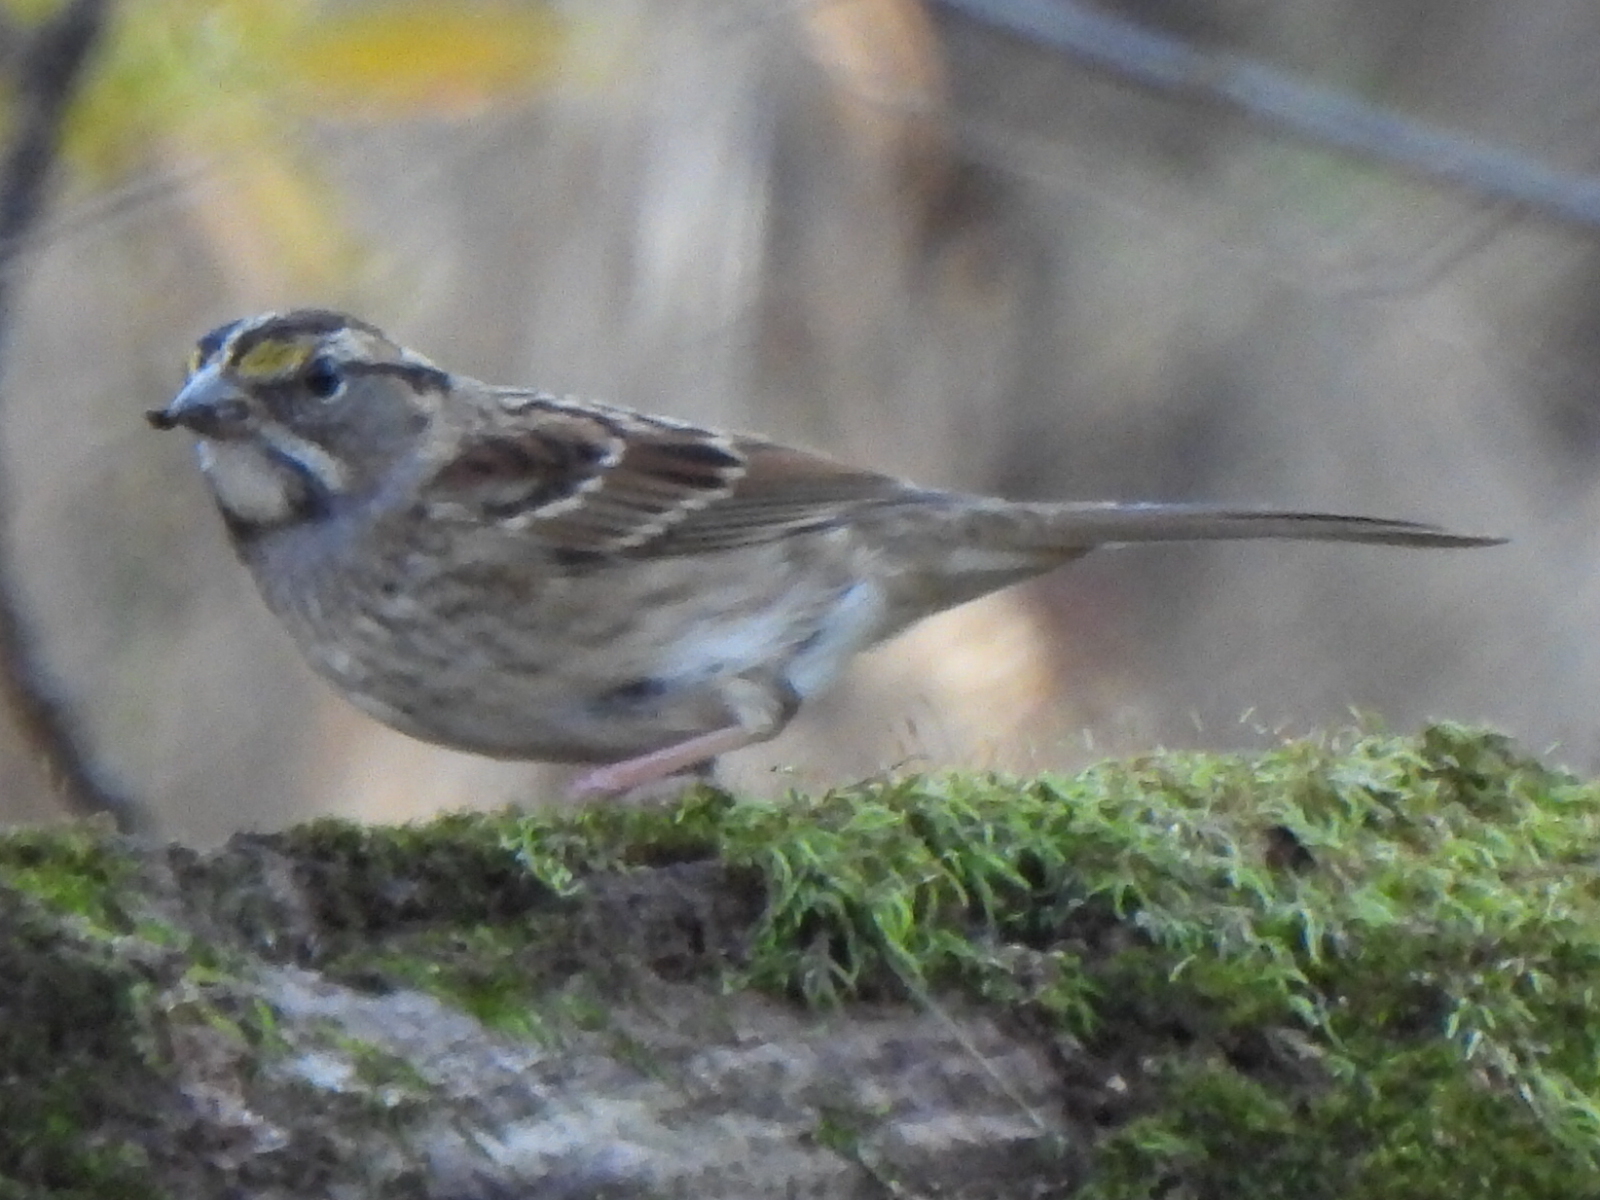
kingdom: Animalia
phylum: Chordata
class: Aves
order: Passeriformes
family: Passerellidae
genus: Zonotrichia
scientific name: Zonotrichia albicollis
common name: White-throated sparrow
